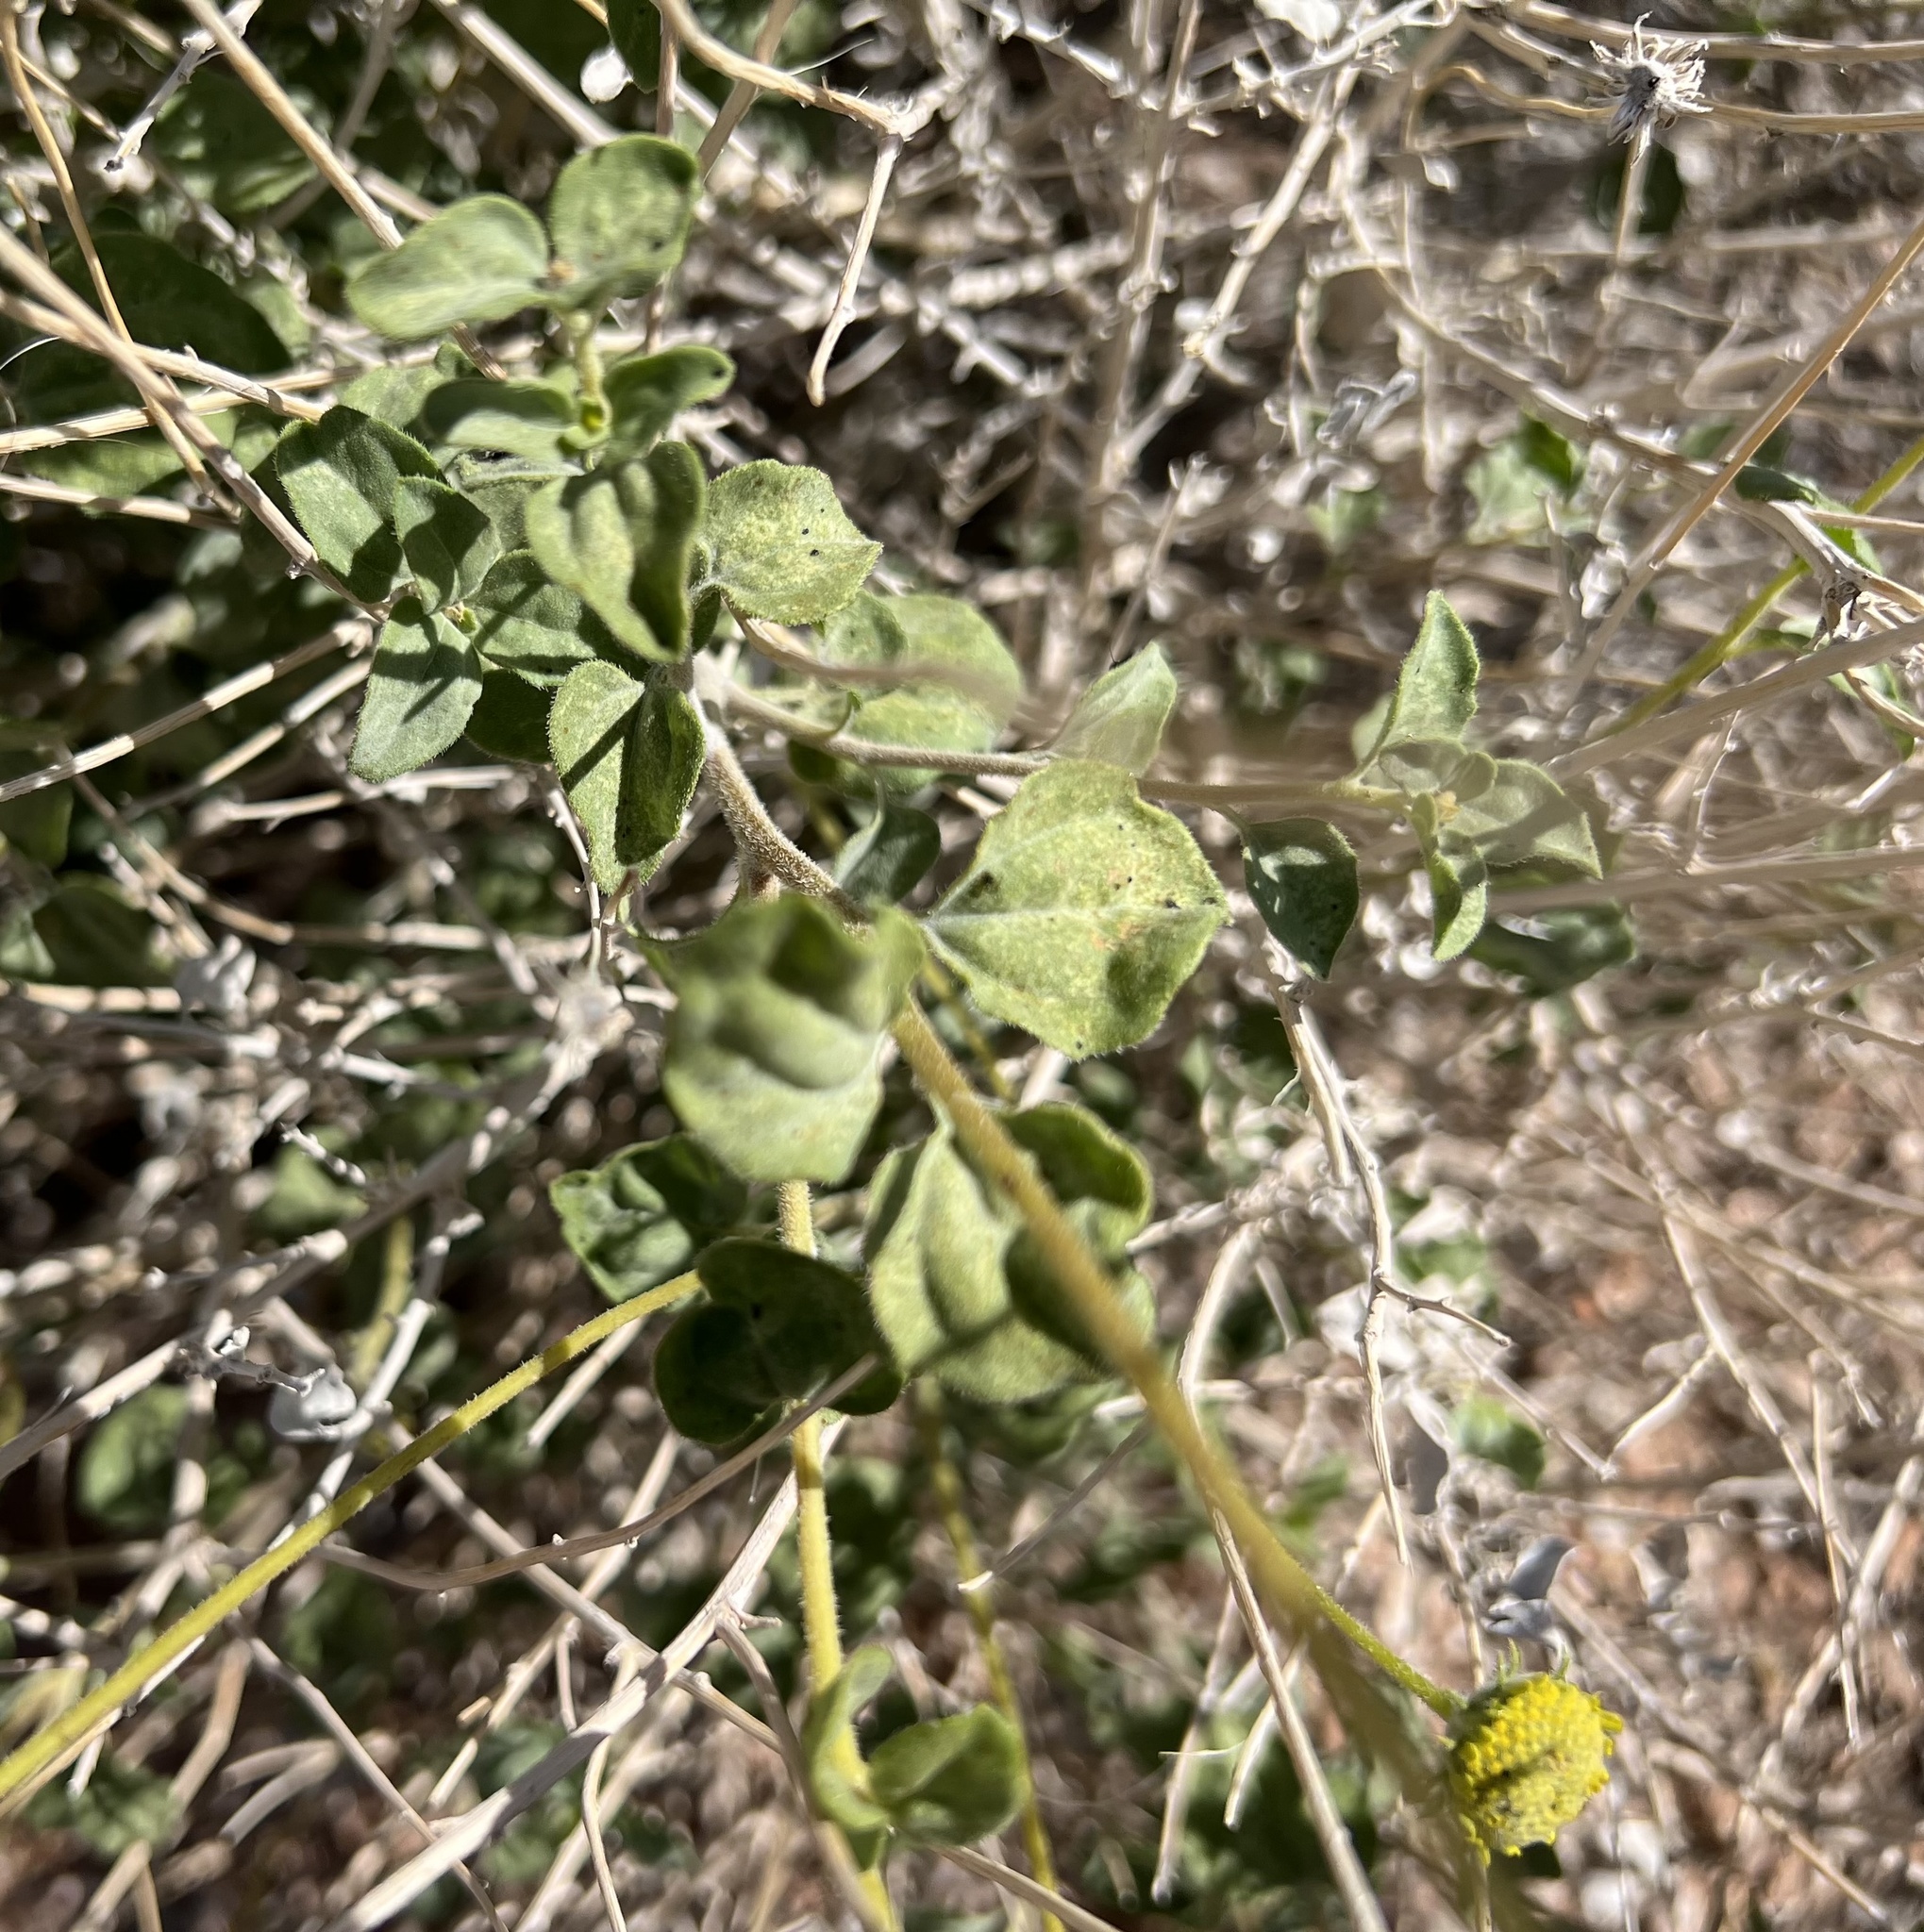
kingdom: Plantae
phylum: Tracheophyta
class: Magnoliopsida
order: Asterales
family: Asteraceae
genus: Encelia
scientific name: Encelia virginensis
